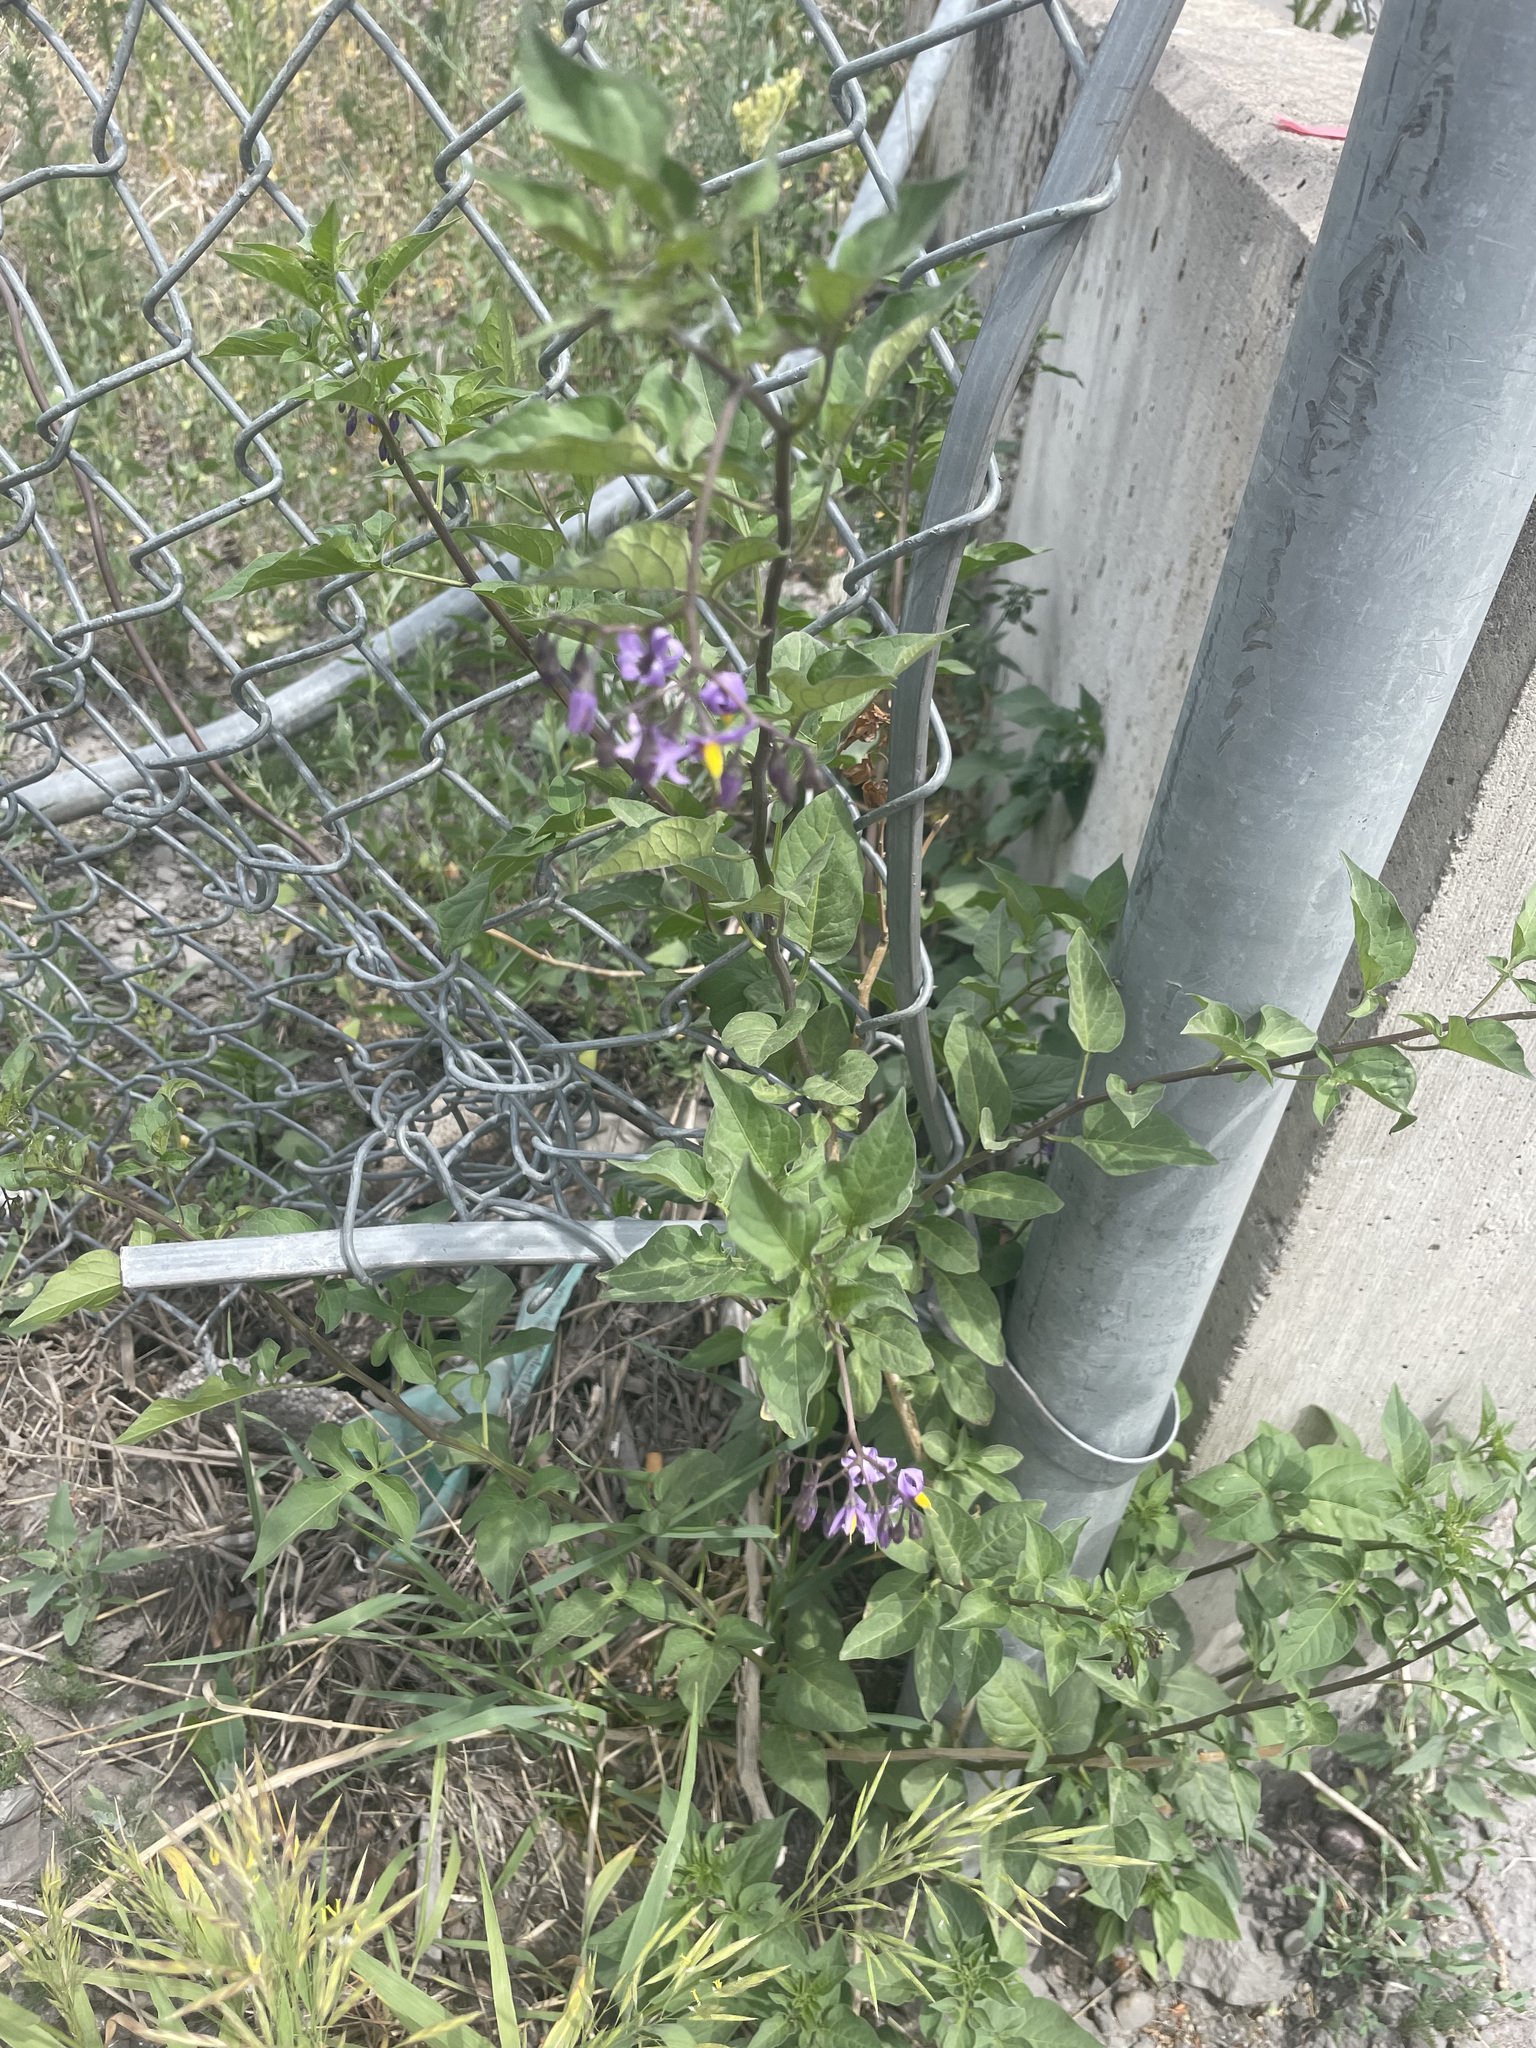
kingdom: Plantae
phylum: Tracheophyta
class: Magnoliopsida
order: Solanales
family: Solanaceae
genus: Solanum
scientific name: Solanum dulcamara
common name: Climbing nightshade
